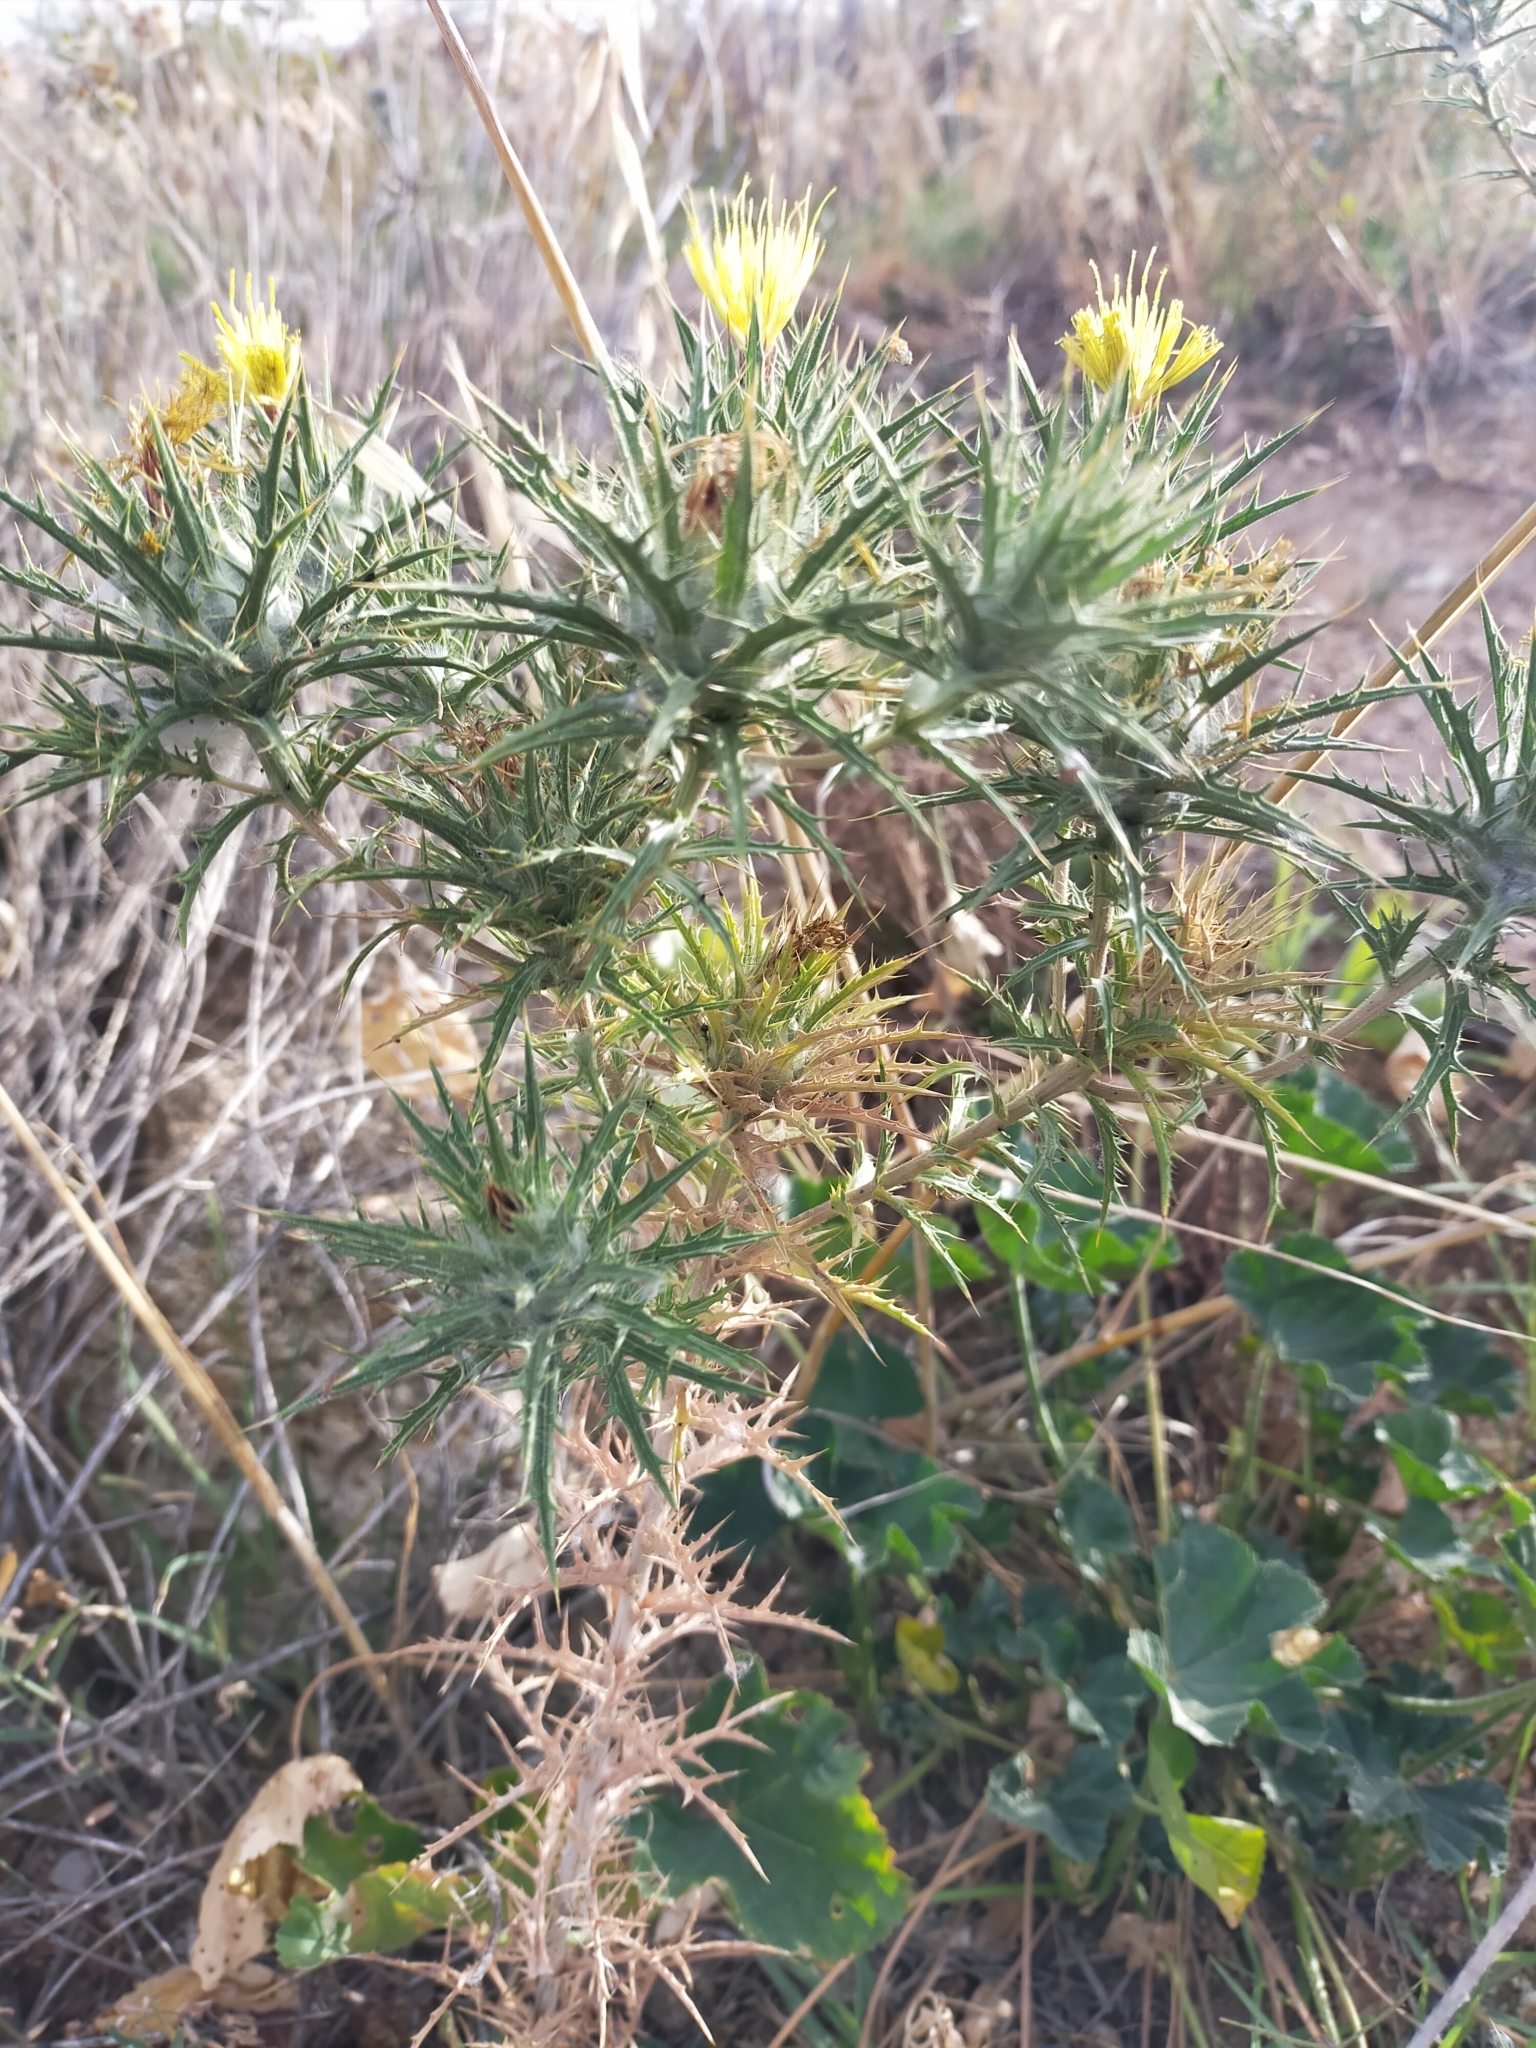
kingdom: Plantae
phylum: Tracheophyta
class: Magnoliopsida
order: Asterales
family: Asteraceae
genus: Carthamus
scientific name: Carthamus lanatus
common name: Downy safflower
